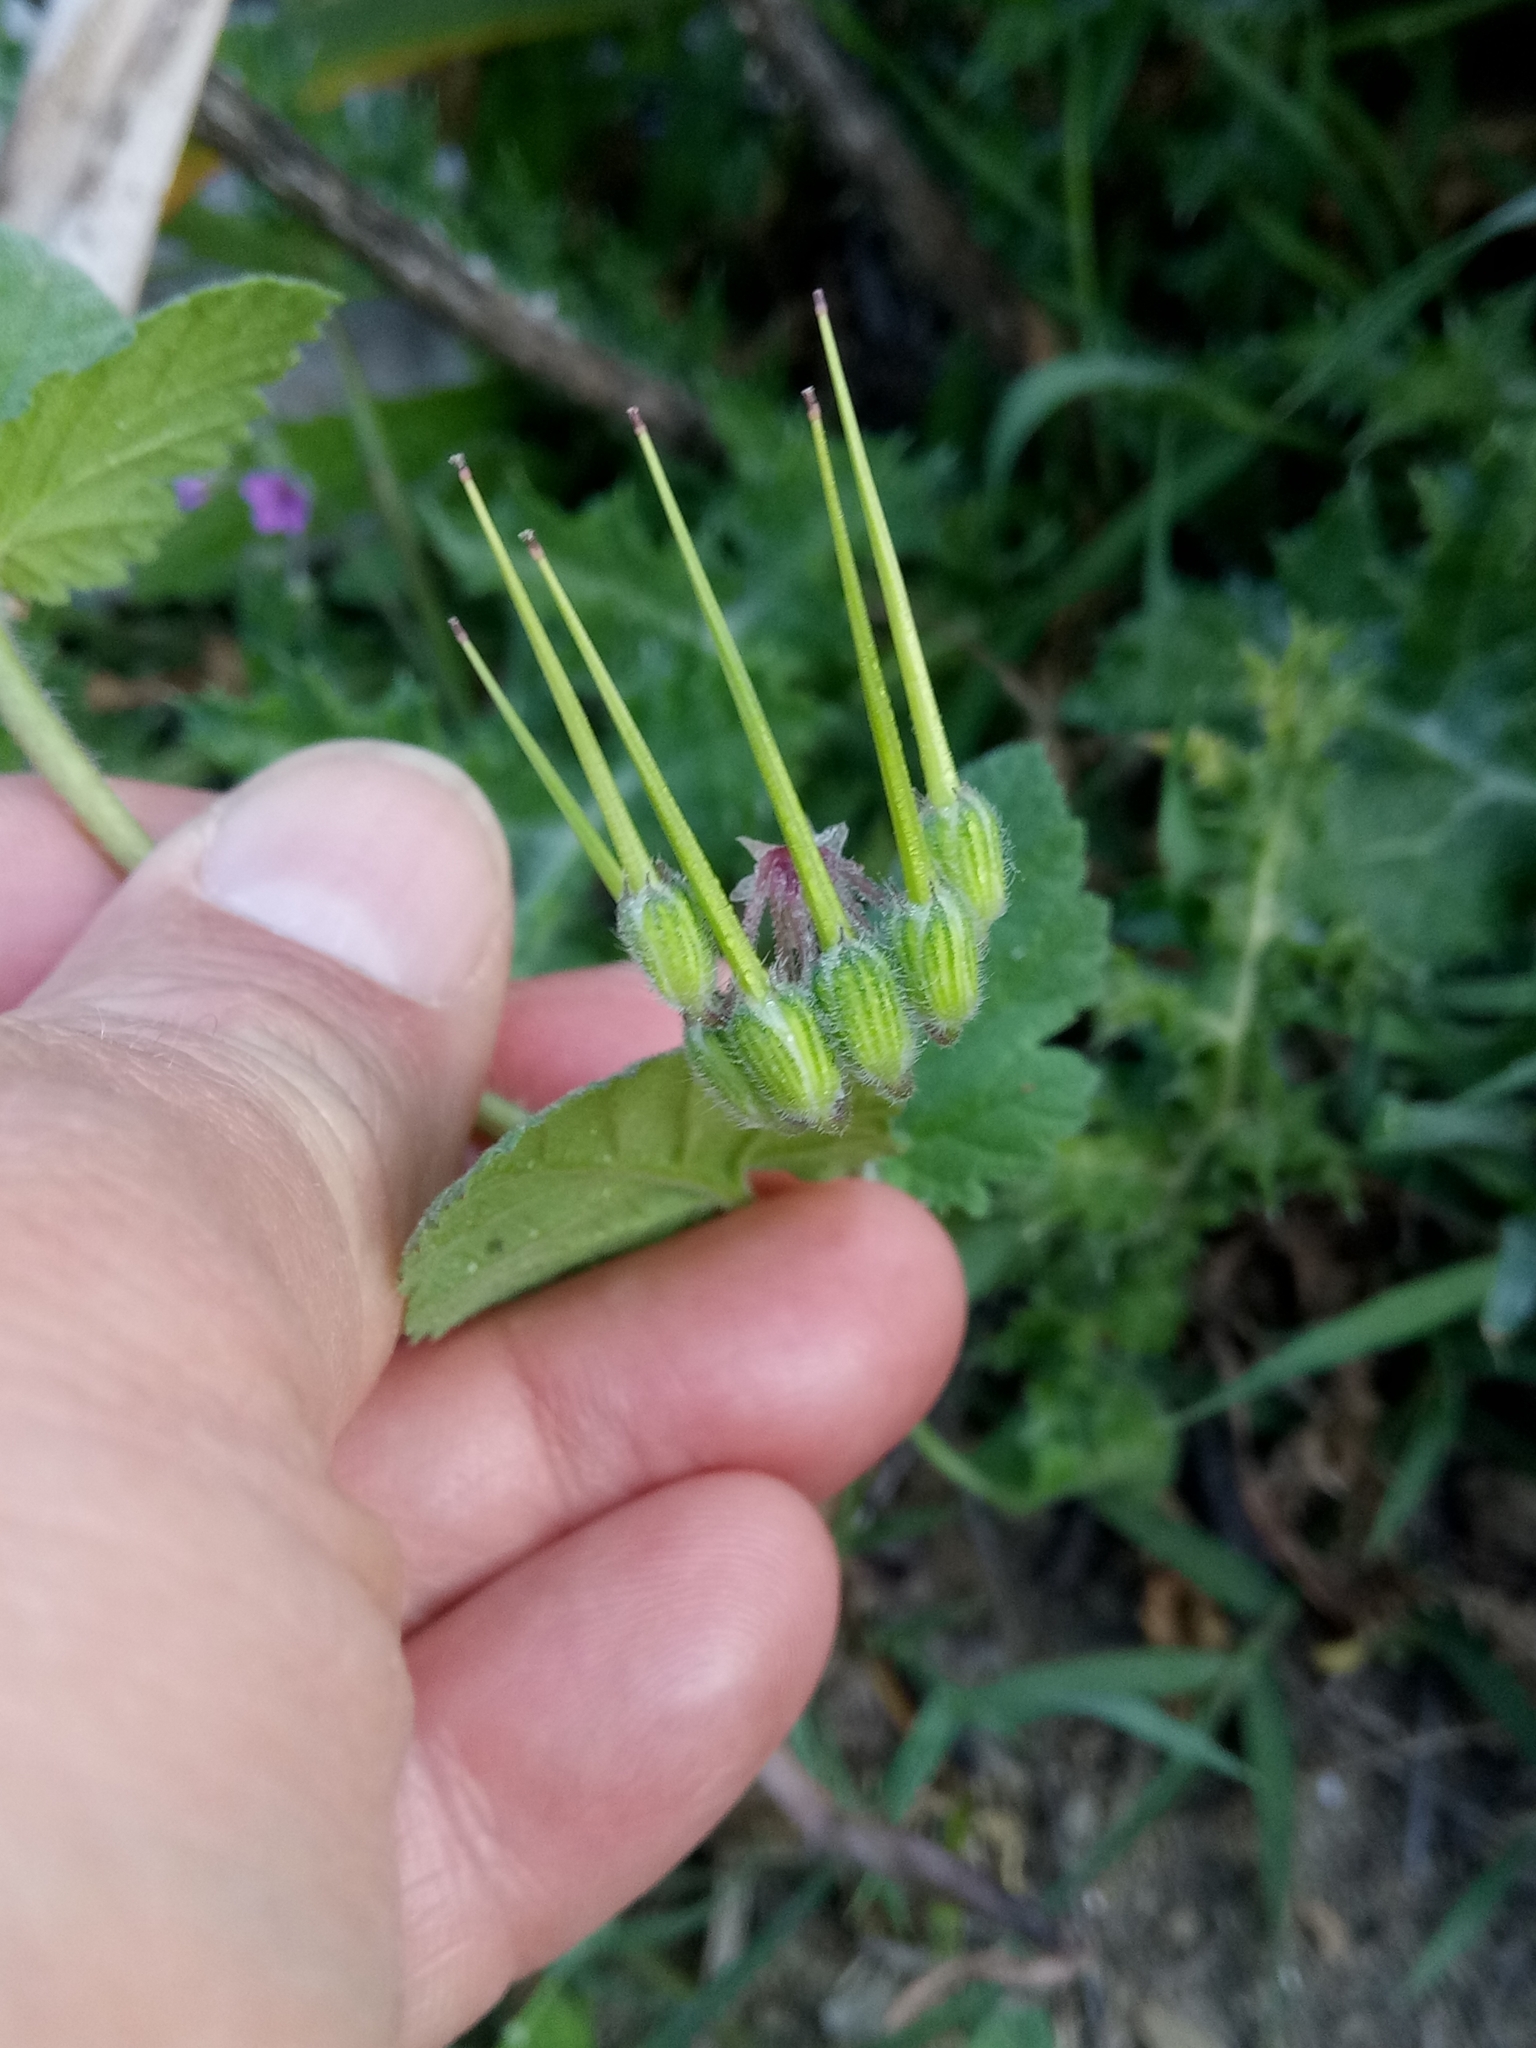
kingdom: Plantae
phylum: Tracheophyta
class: Magnoliopsida
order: Geraniales
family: Geraniaceae
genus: Erodium
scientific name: Erodium malacoides
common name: Soft stork's-bill
